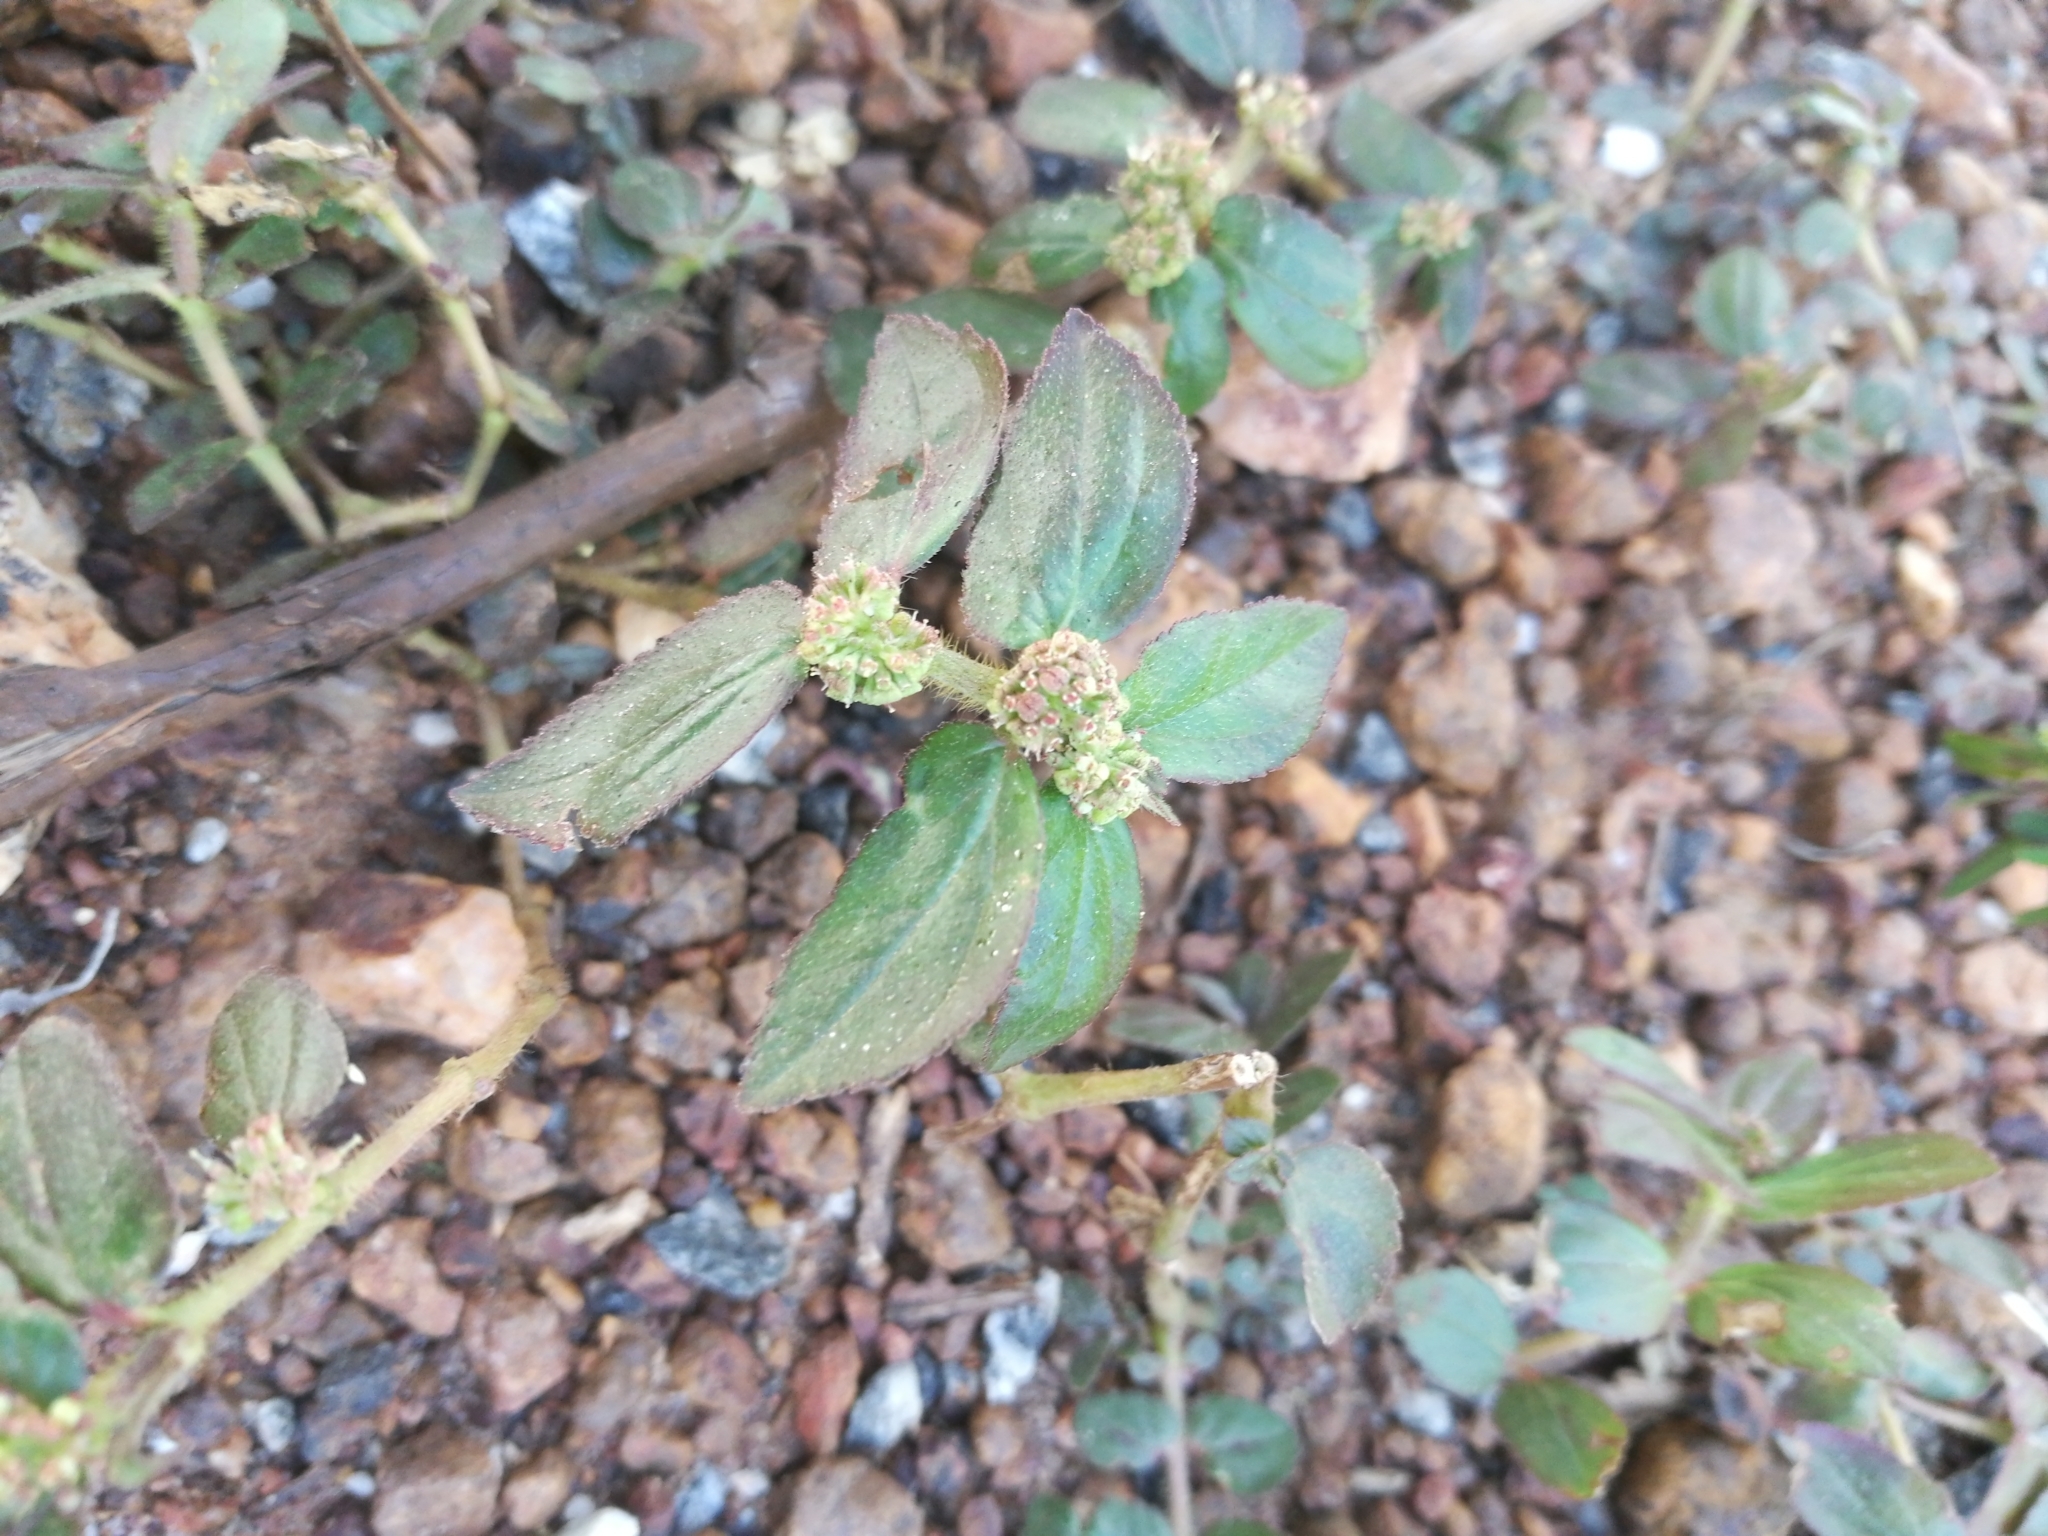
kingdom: Plantae
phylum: Tracheophyta
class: Magnoliopsida
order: Malpighiales
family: Euphorbiaceae
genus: Euphorbia
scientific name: Euphorbia hirta
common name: Pillpod sandmat
